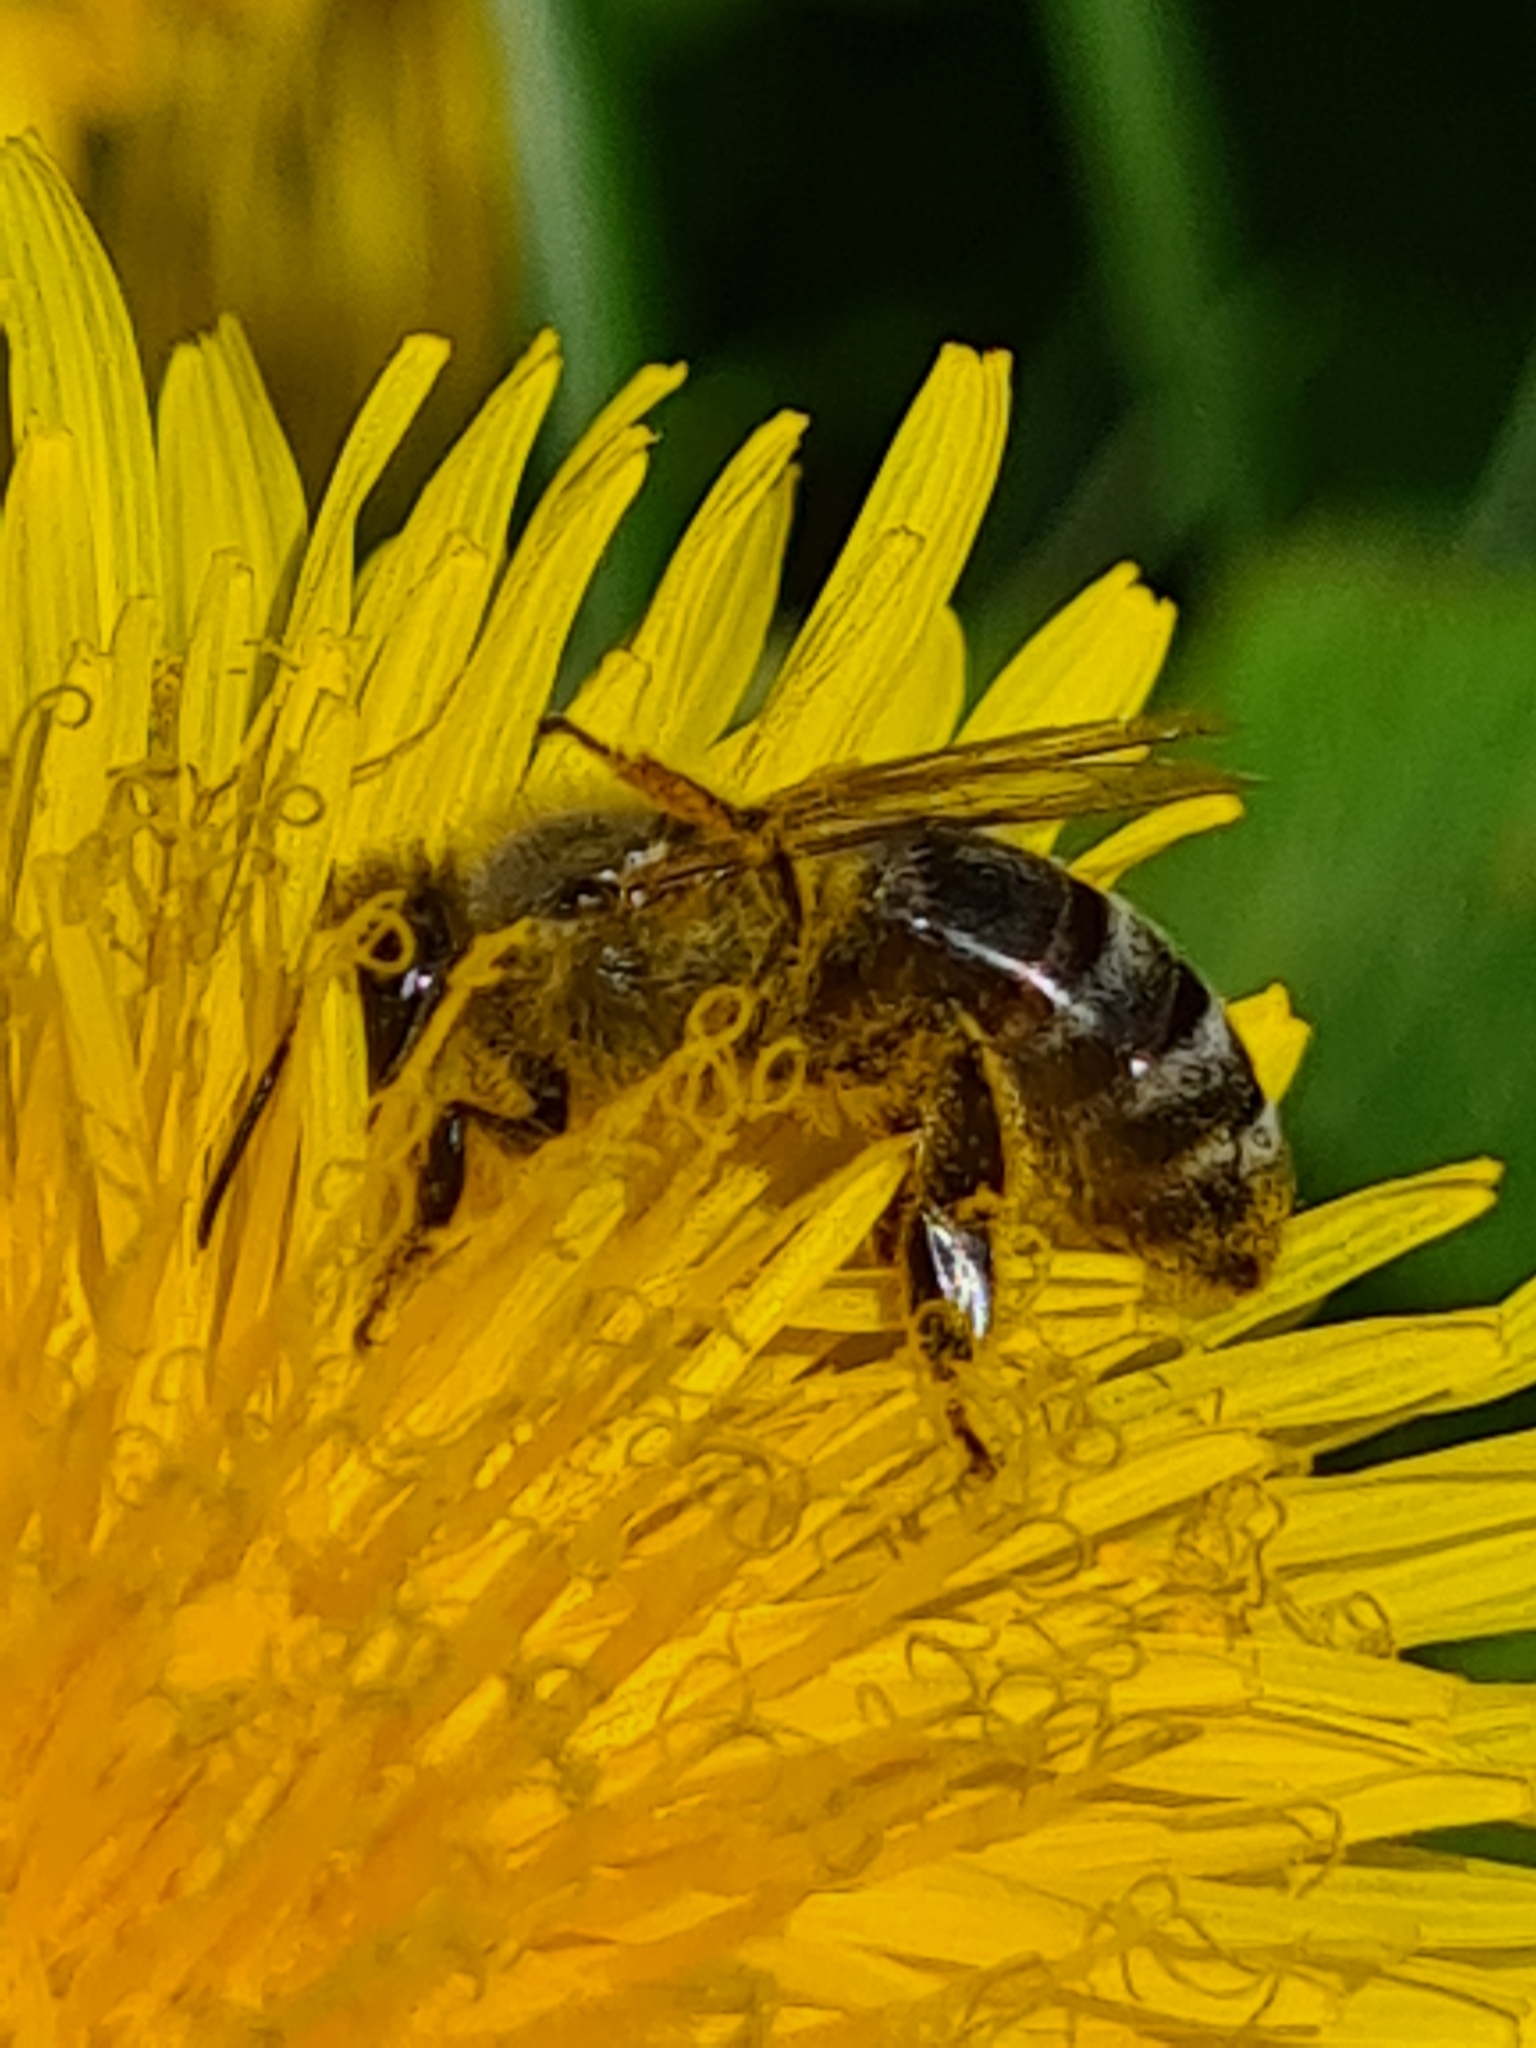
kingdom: Animalia
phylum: Arthropoda
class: Insecta
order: Hymenoptera
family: Apidae
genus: Apis
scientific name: Apis mellifera
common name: Honey bee
